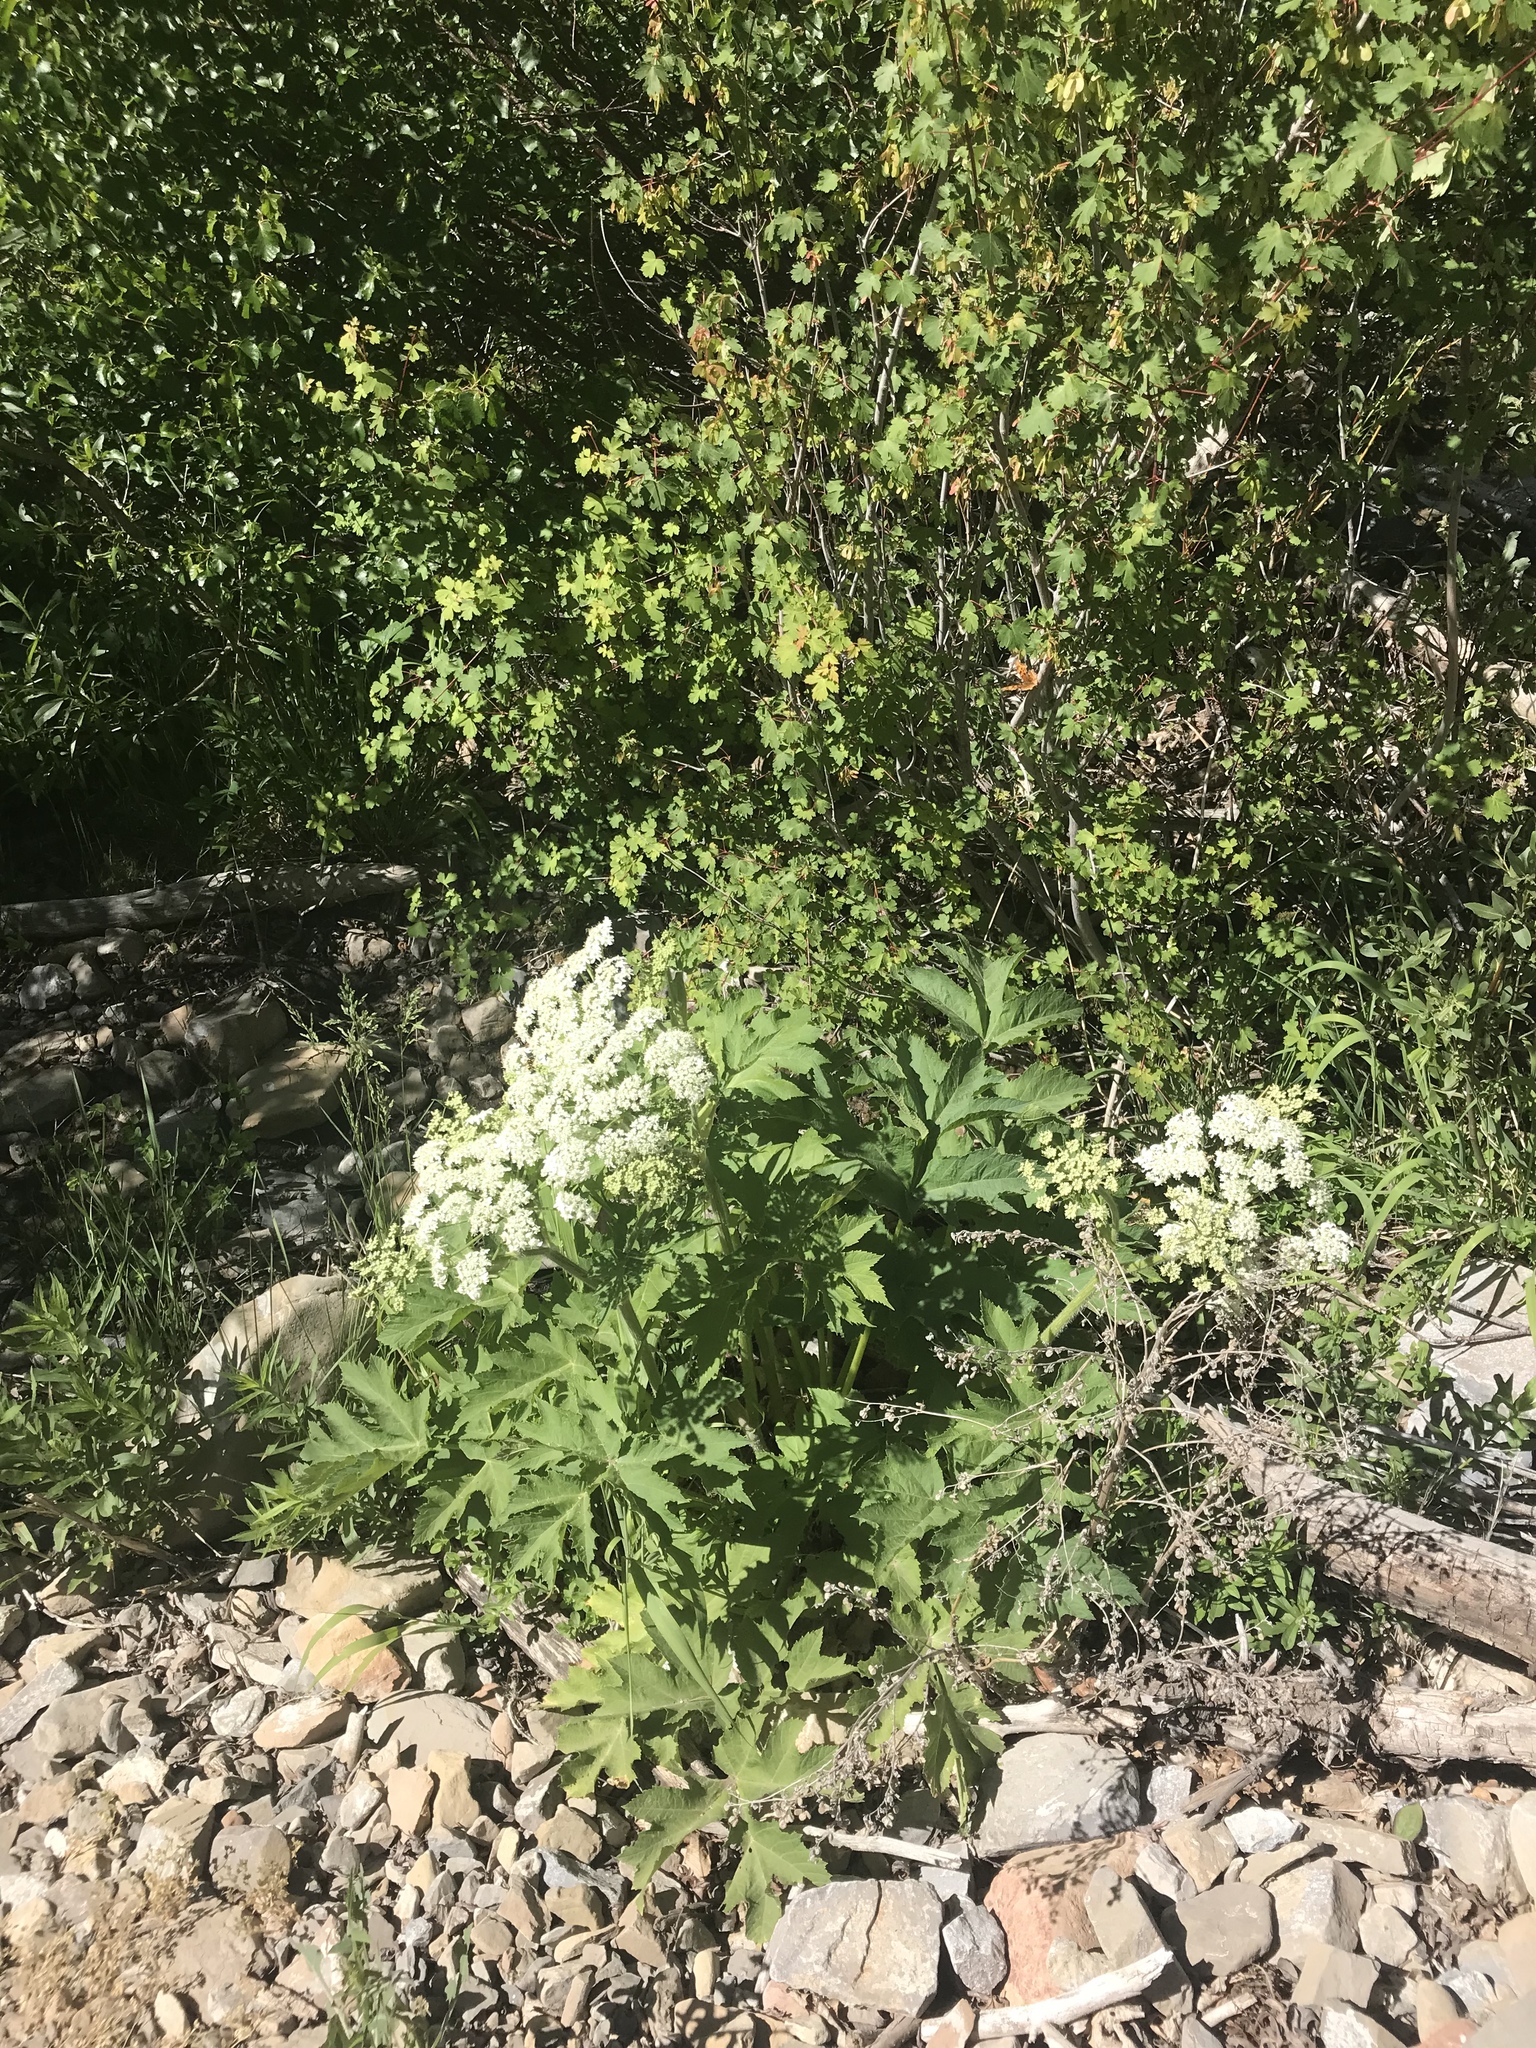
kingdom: Plantae
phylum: Tracheophyta
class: Magnoliopsida
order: Apiales
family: Apiaceae
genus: Heracleum
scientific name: Heracleum maximum
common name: American cow parsnip
